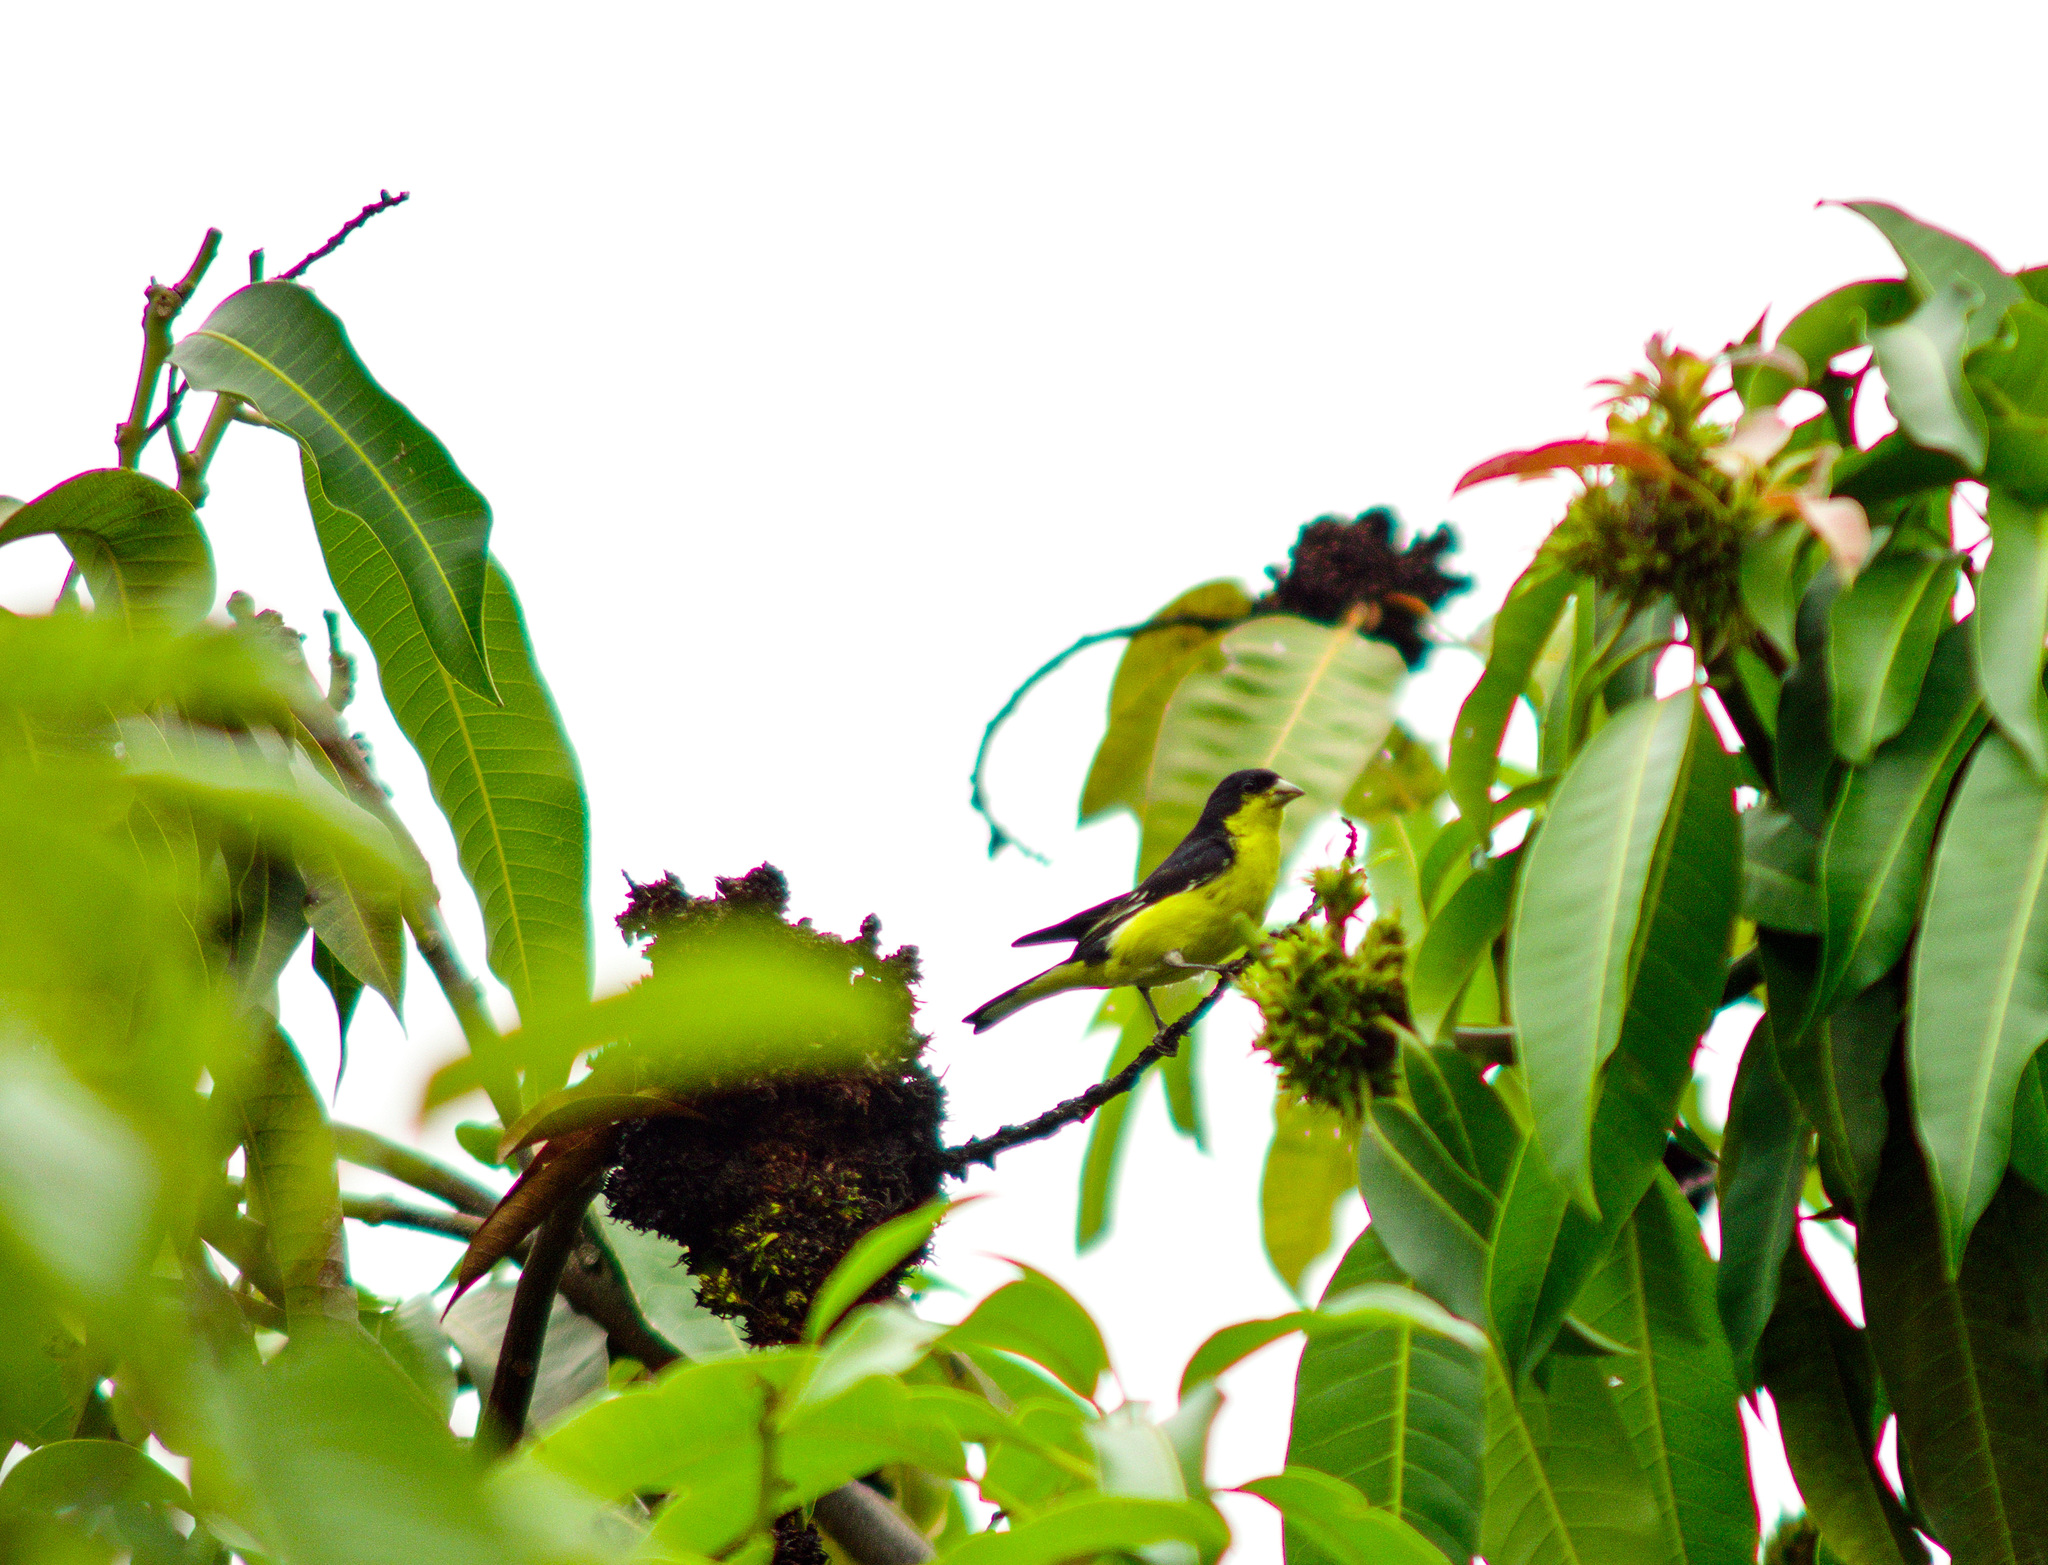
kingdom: Animalia
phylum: Chordata
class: Aves
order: Passeriformes
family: Fringillidae
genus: Spinus
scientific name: Spinus psaltria
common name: Lesser goldfinch
